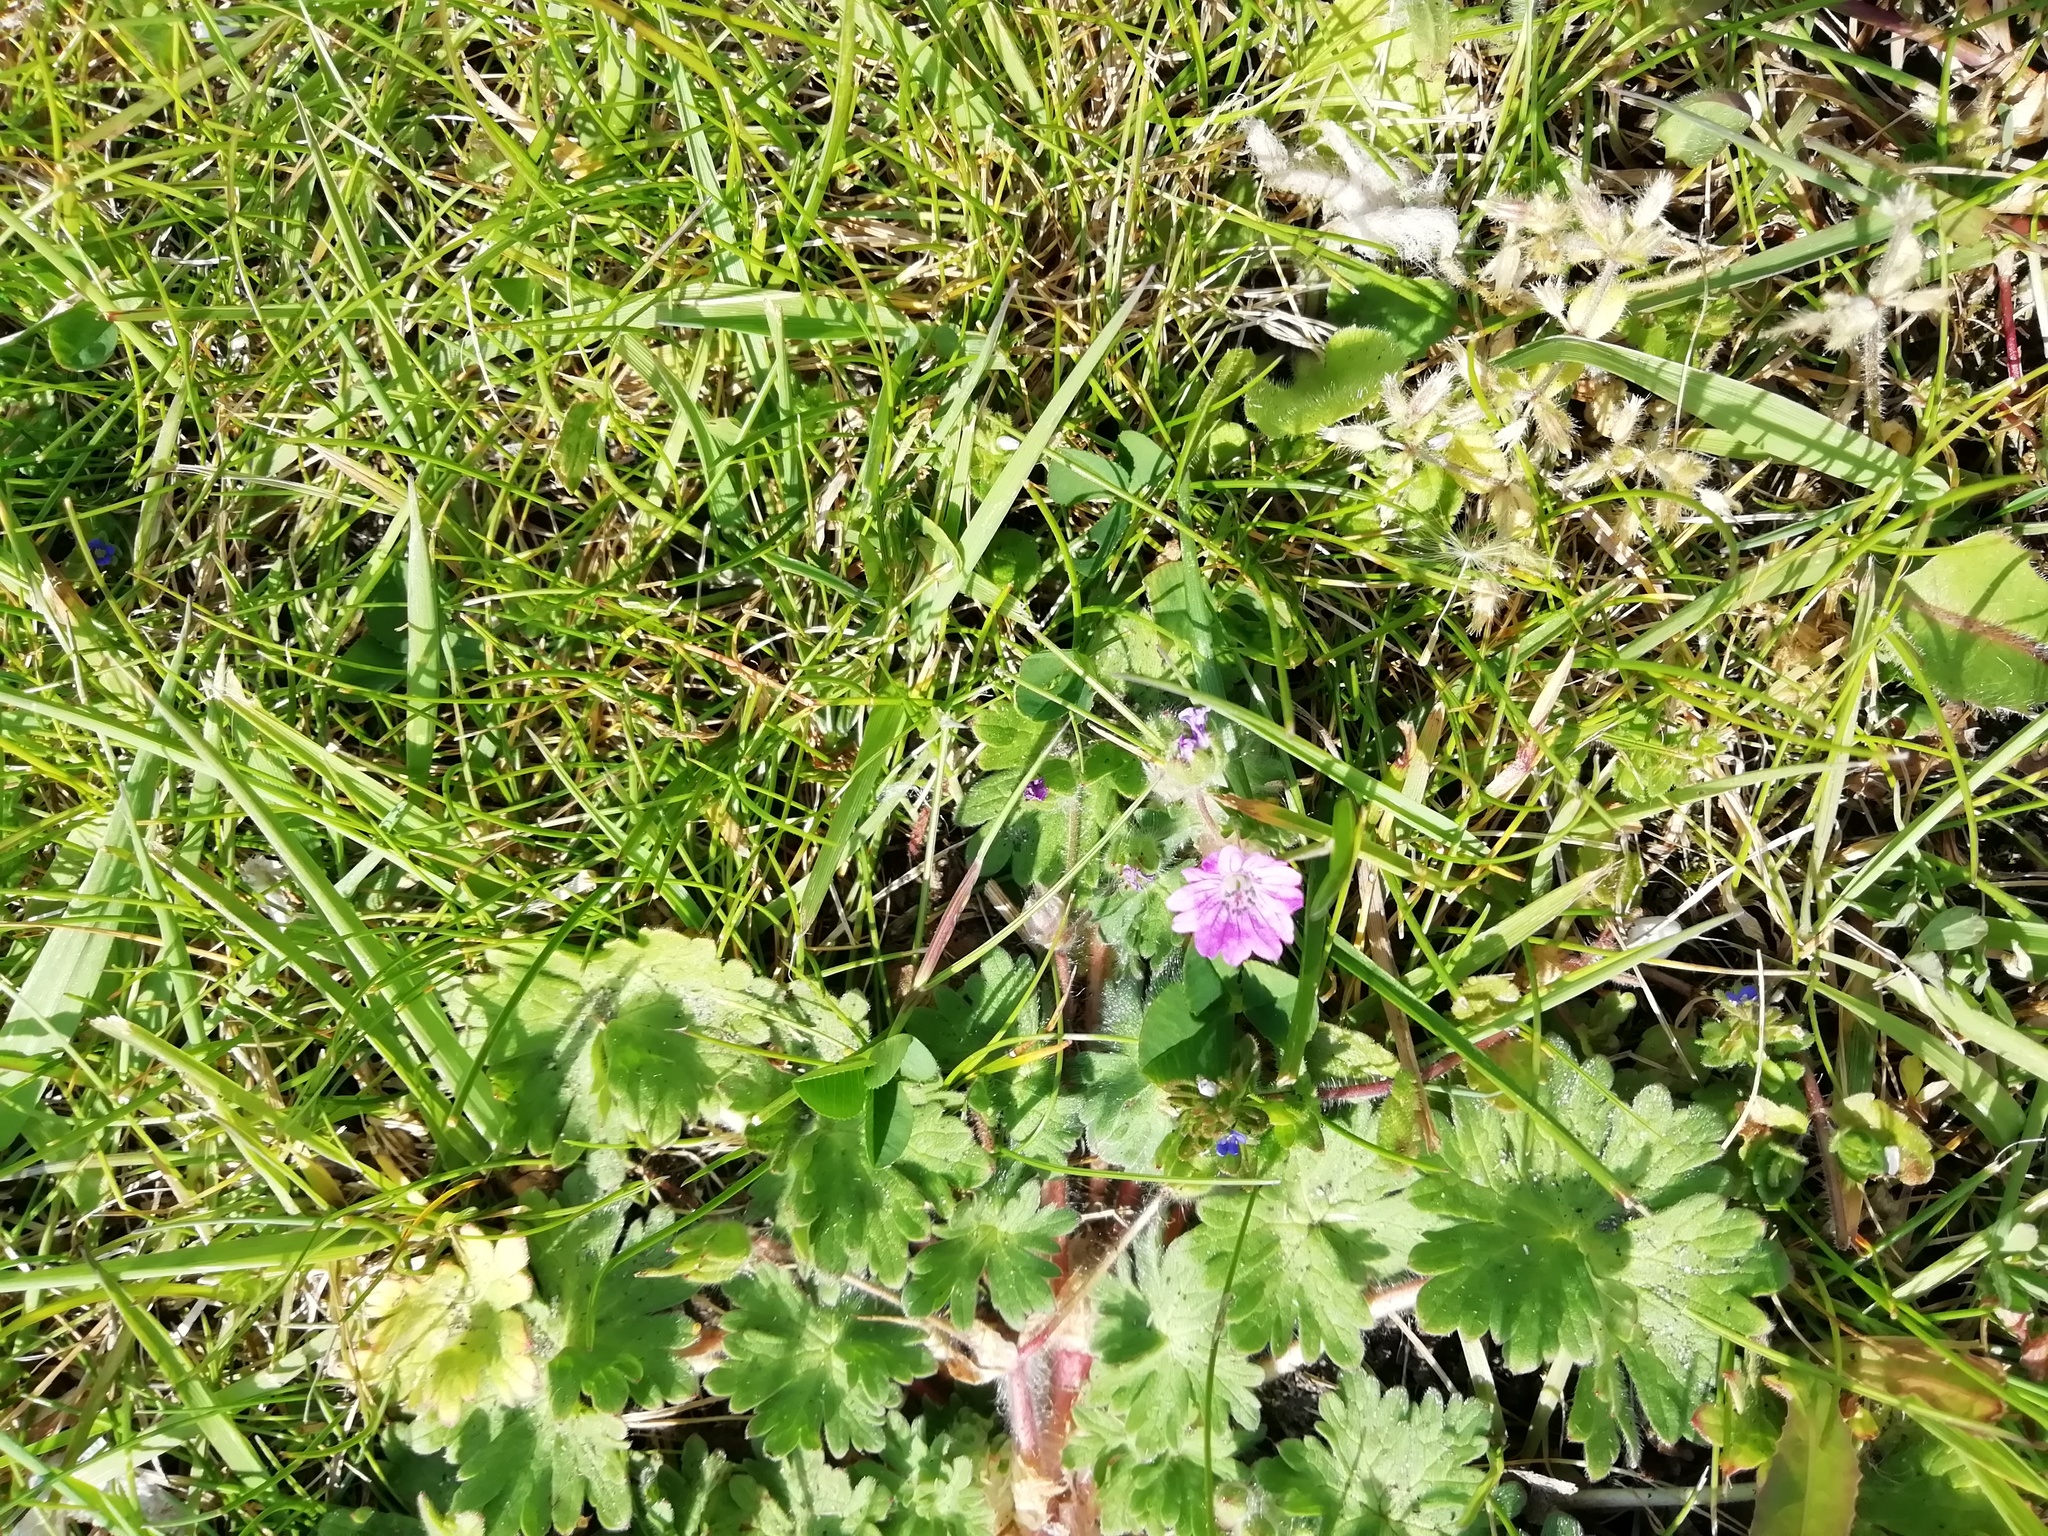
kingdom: Plantae
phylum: Tracheophyta
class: Magnoliopsida
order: Geraniales
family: Geraniaceae
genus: Geranium
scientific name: Geranium molle
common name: Dove's-foot crane's-bill
